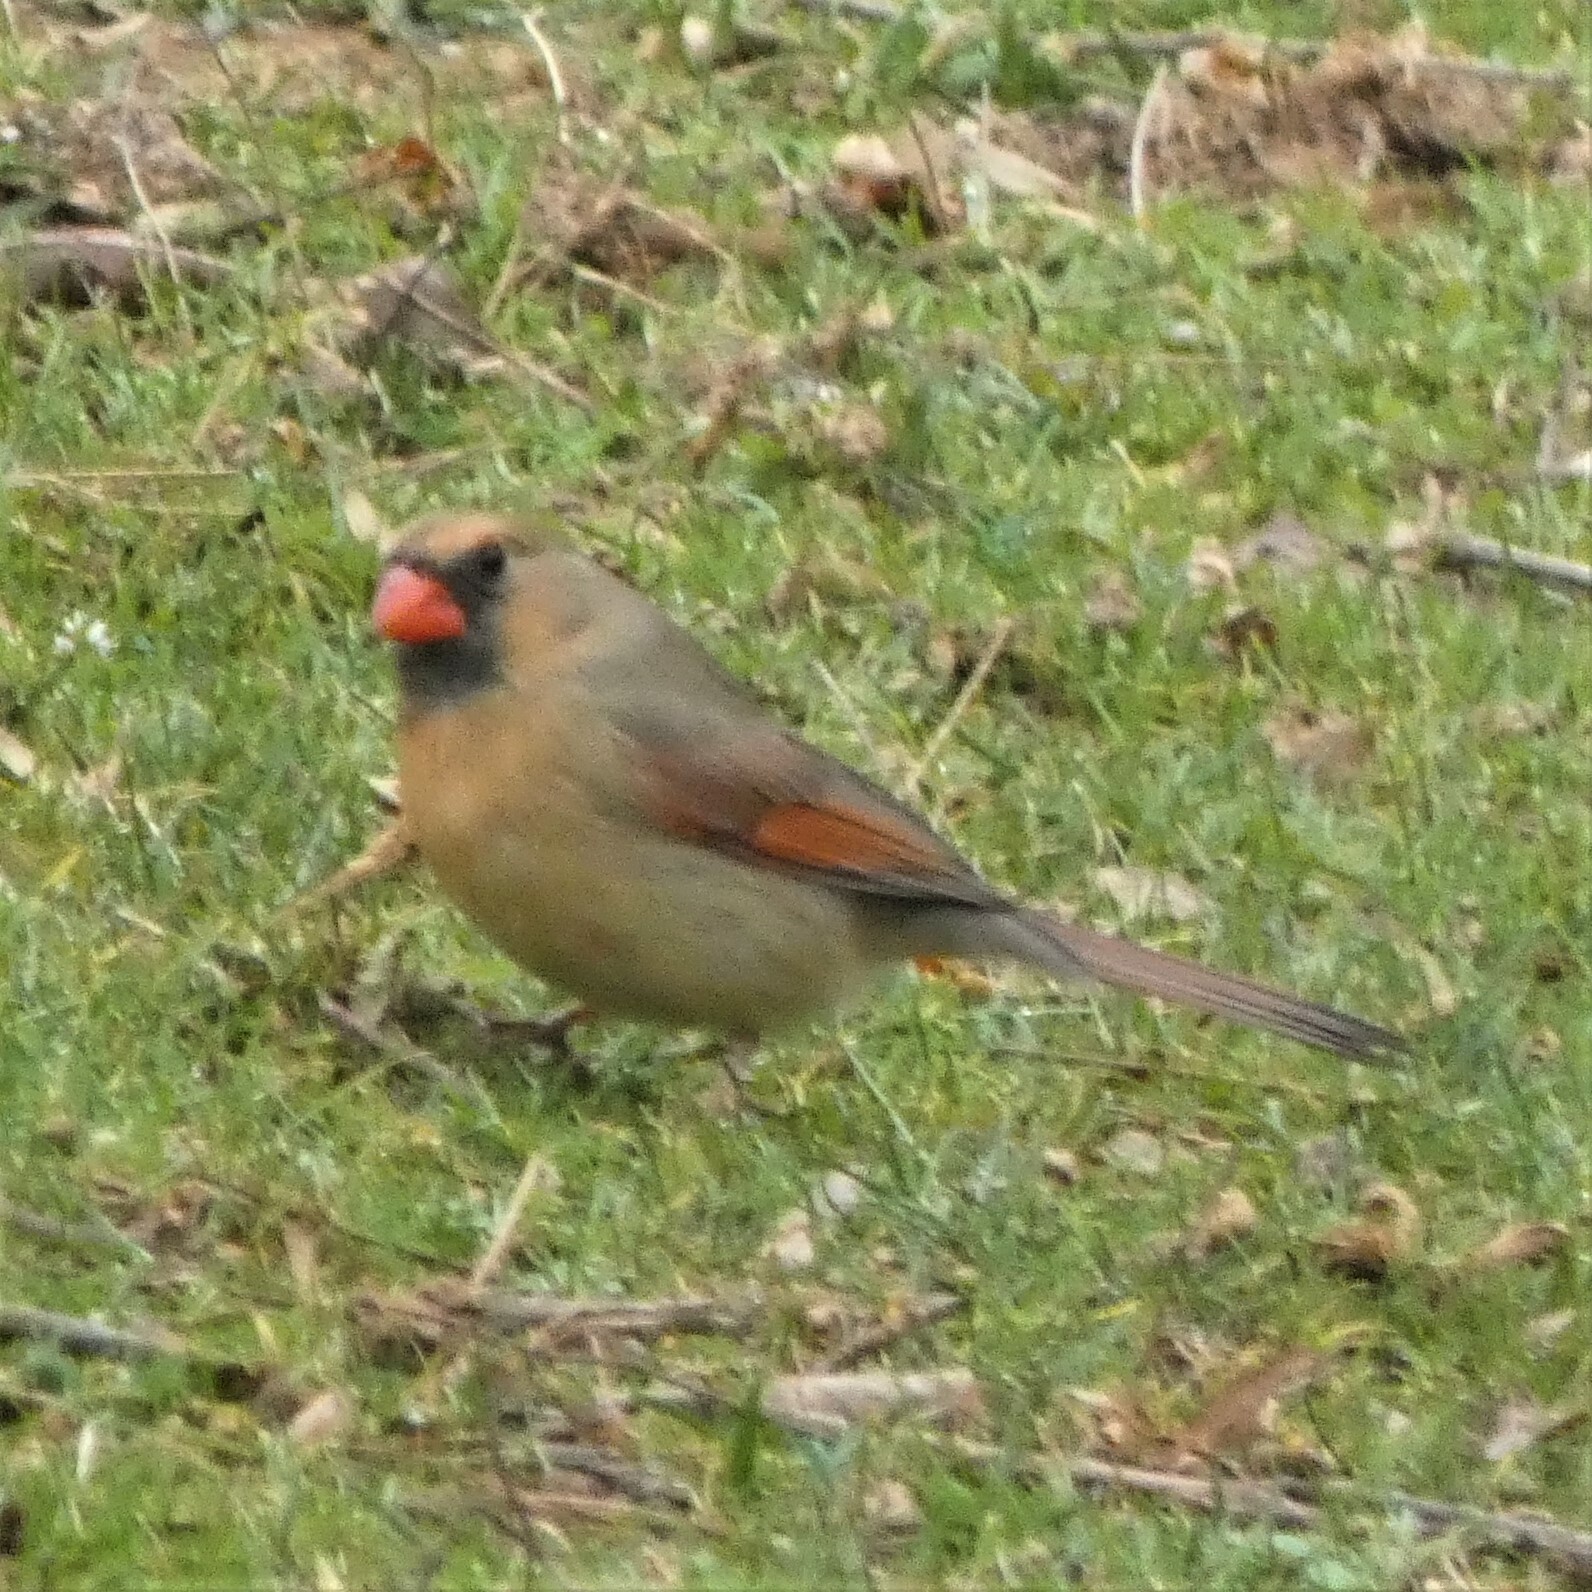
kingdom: Animalia
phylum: Chordata
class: Aves
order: Passeriformes
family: Cardinalidae
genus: Cardinalis
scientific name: Cardinalis cardinalis
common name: Northern cardinal
